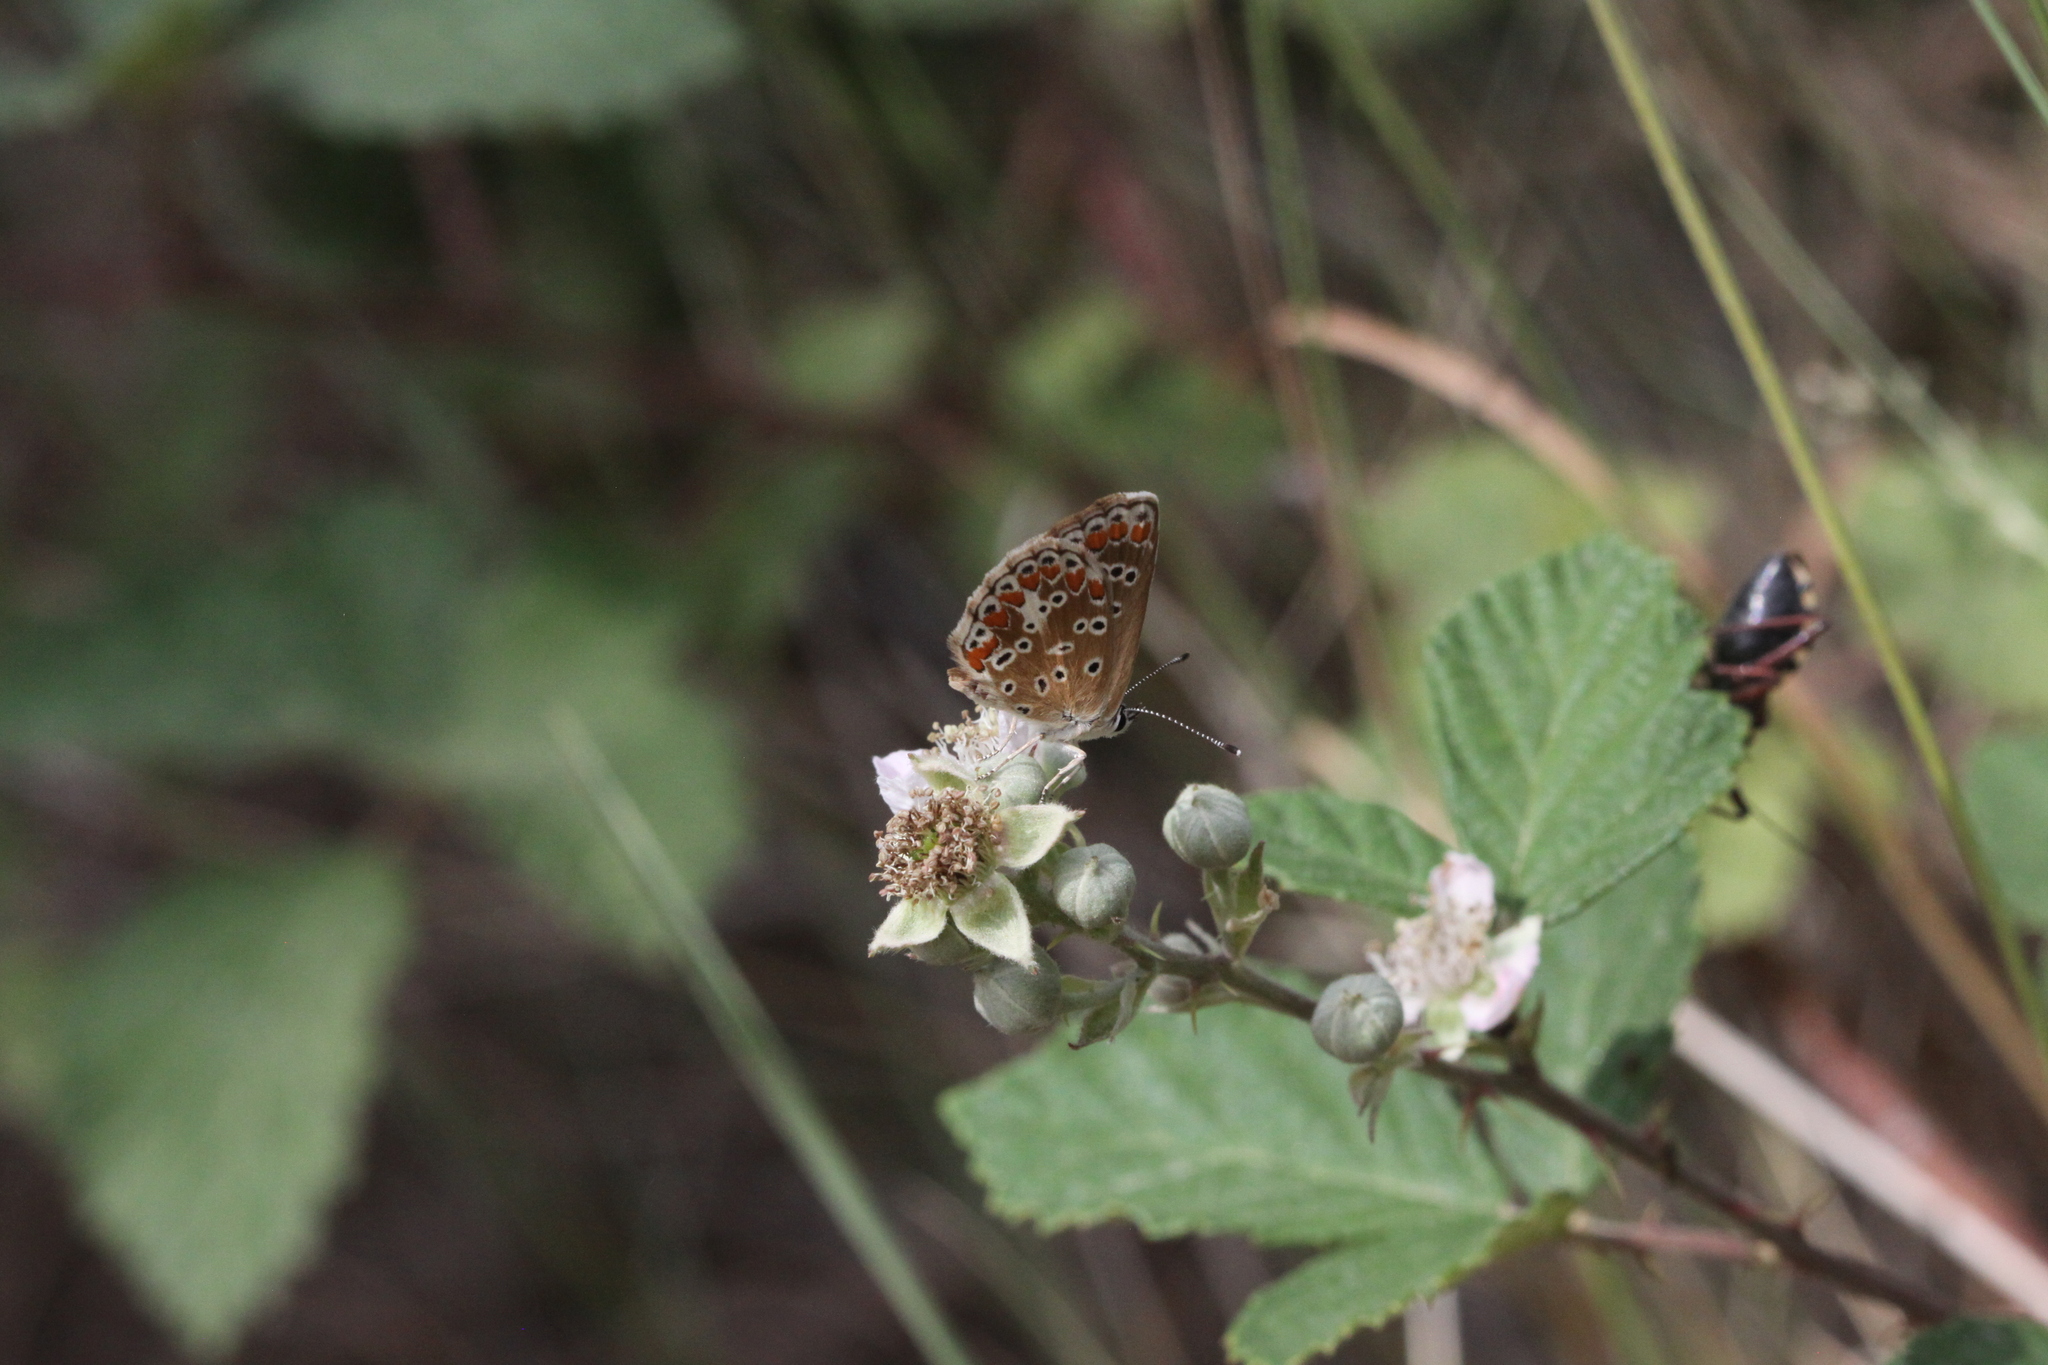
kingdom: Animalia
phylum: Arthropoda
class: Insecta
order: Lepidoptera
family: Lycaenidae
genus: Aricia
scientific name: Aricia agestis
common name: Brown argus
